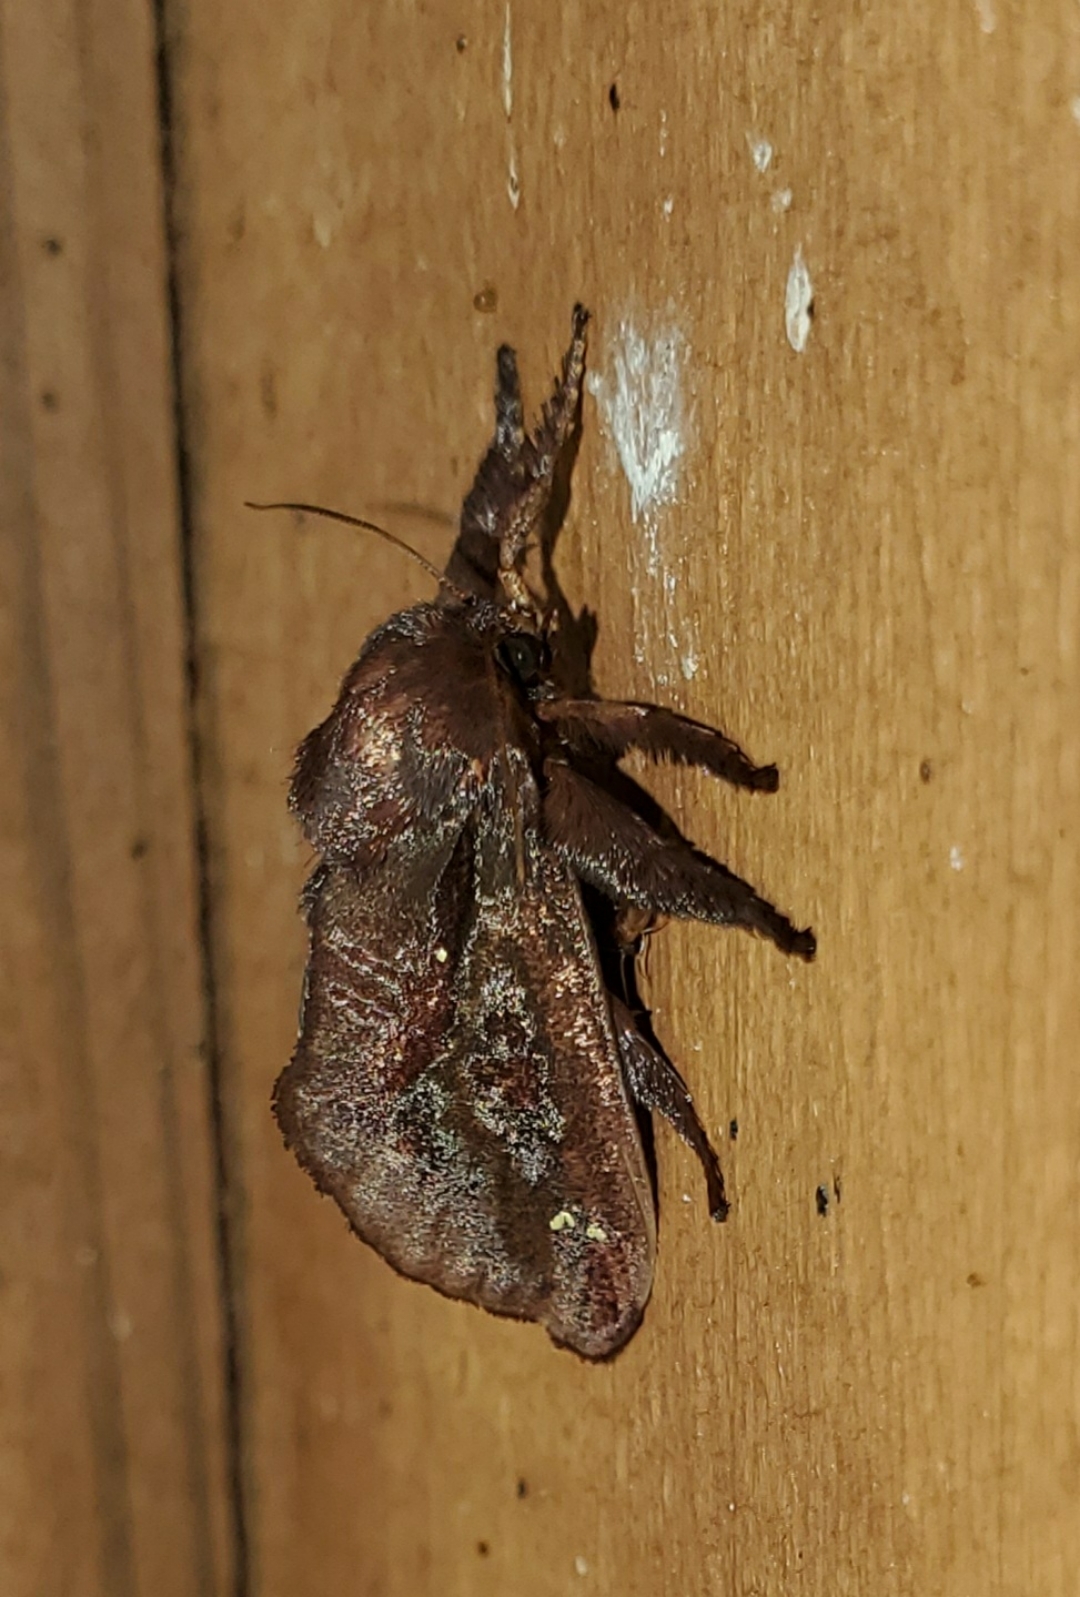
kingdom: Animalia
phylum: Arthropoda
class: Insecta
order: Lepidoptera
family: Limacodidae
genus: Acharia
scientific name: Acharia stimulea
